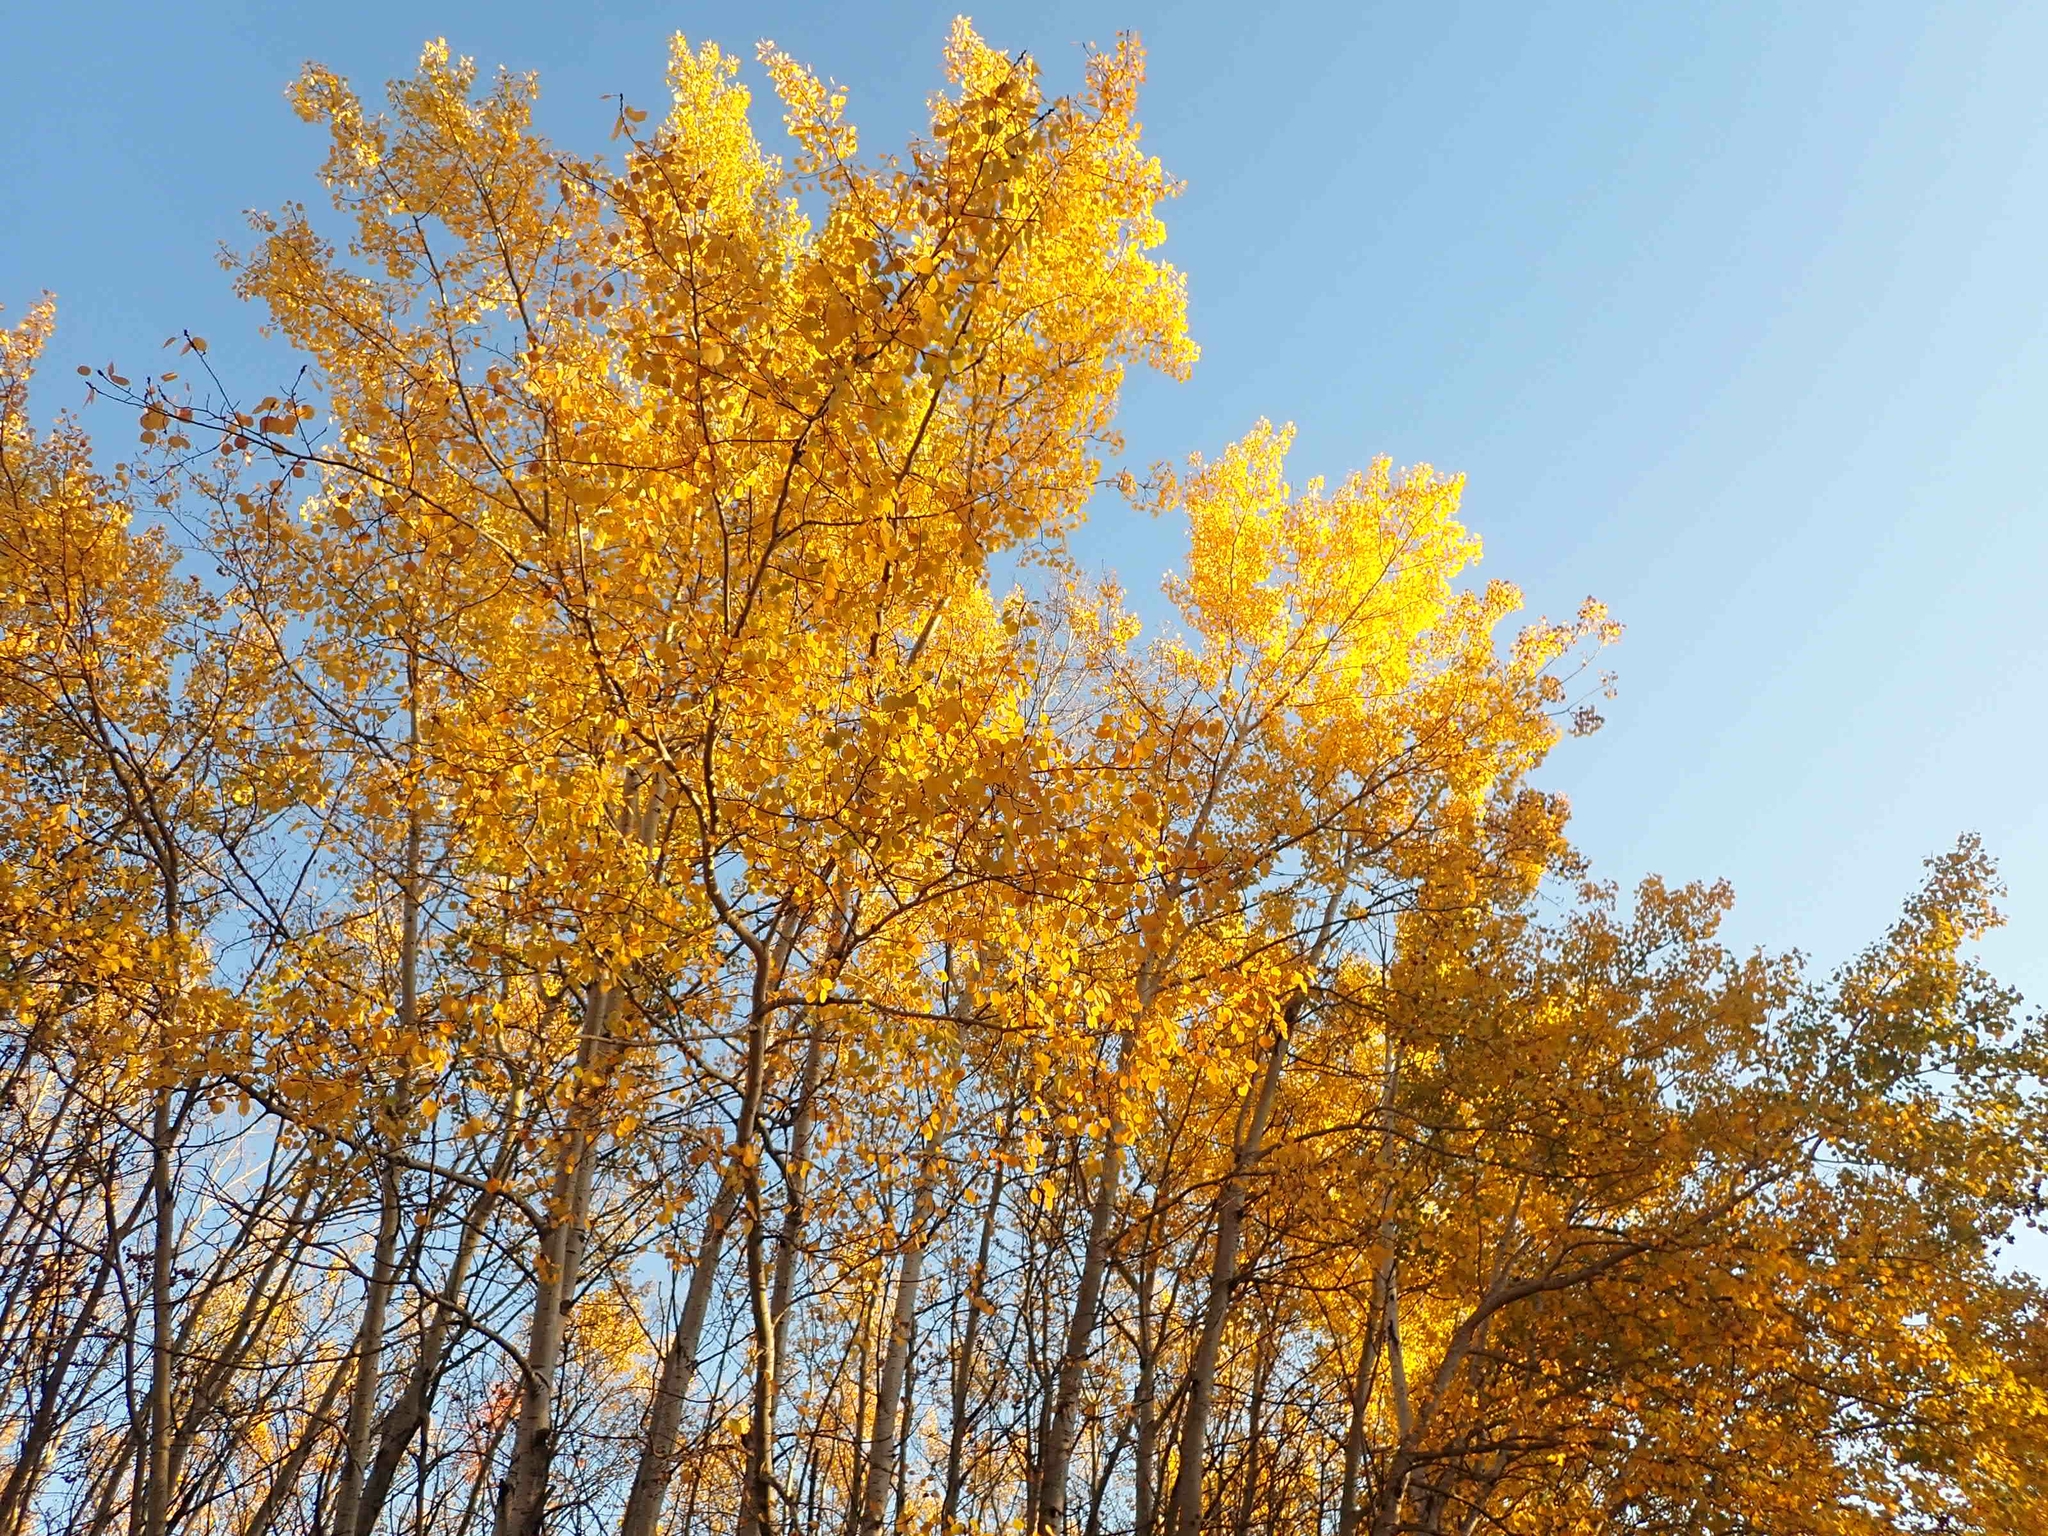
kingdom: Plantae
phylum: Tracheophyta
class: Magnoliopsida
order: Malpighiales
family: Salicaceae
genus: Populus
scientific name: Populus tremuloides
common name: Quaking aspen
